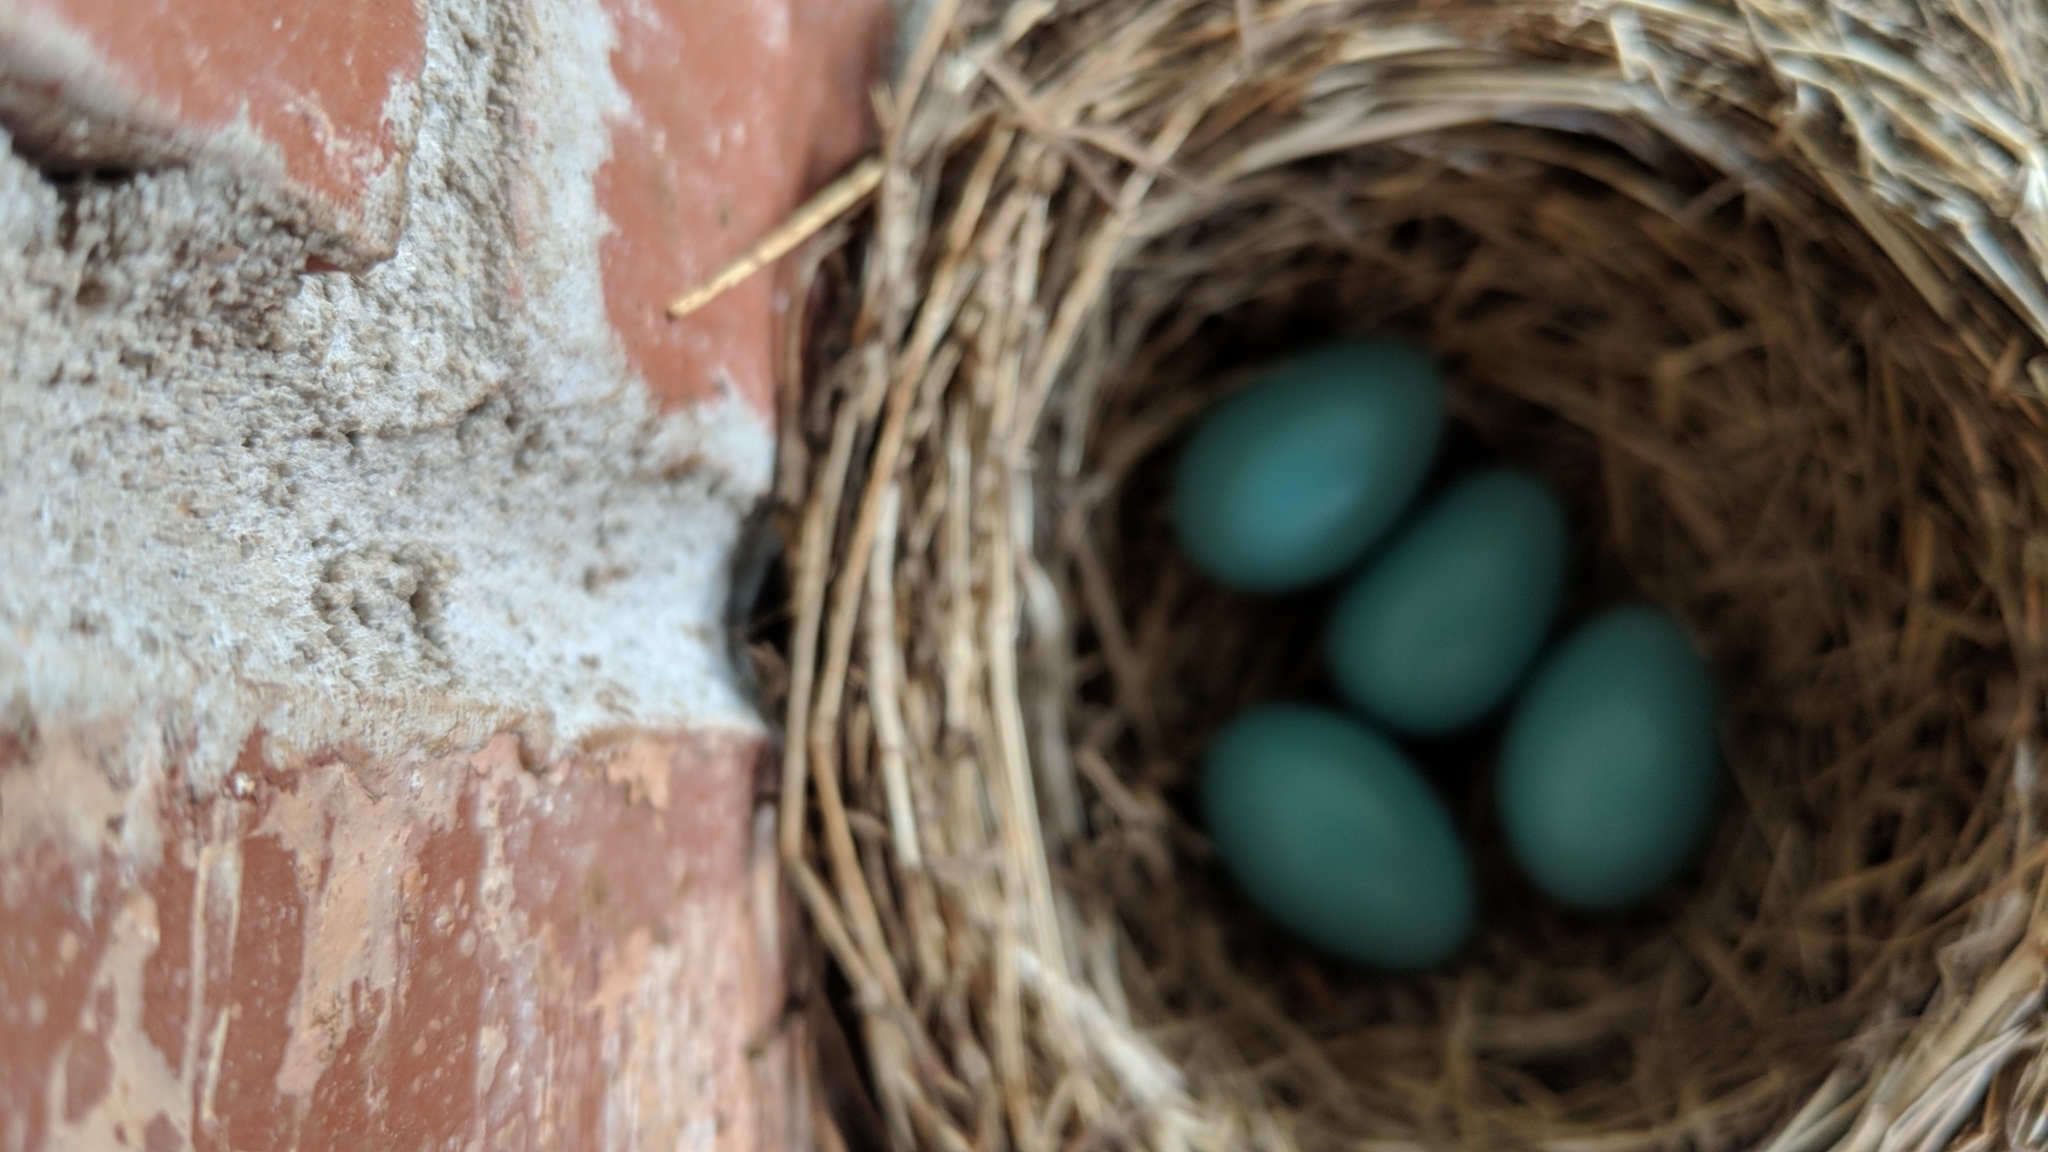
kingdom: Animalia
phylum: Chordata
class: Aves
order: Passeriformes
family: Turdidae
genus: Turdus
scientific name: Turdus migratorius
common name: American robin
